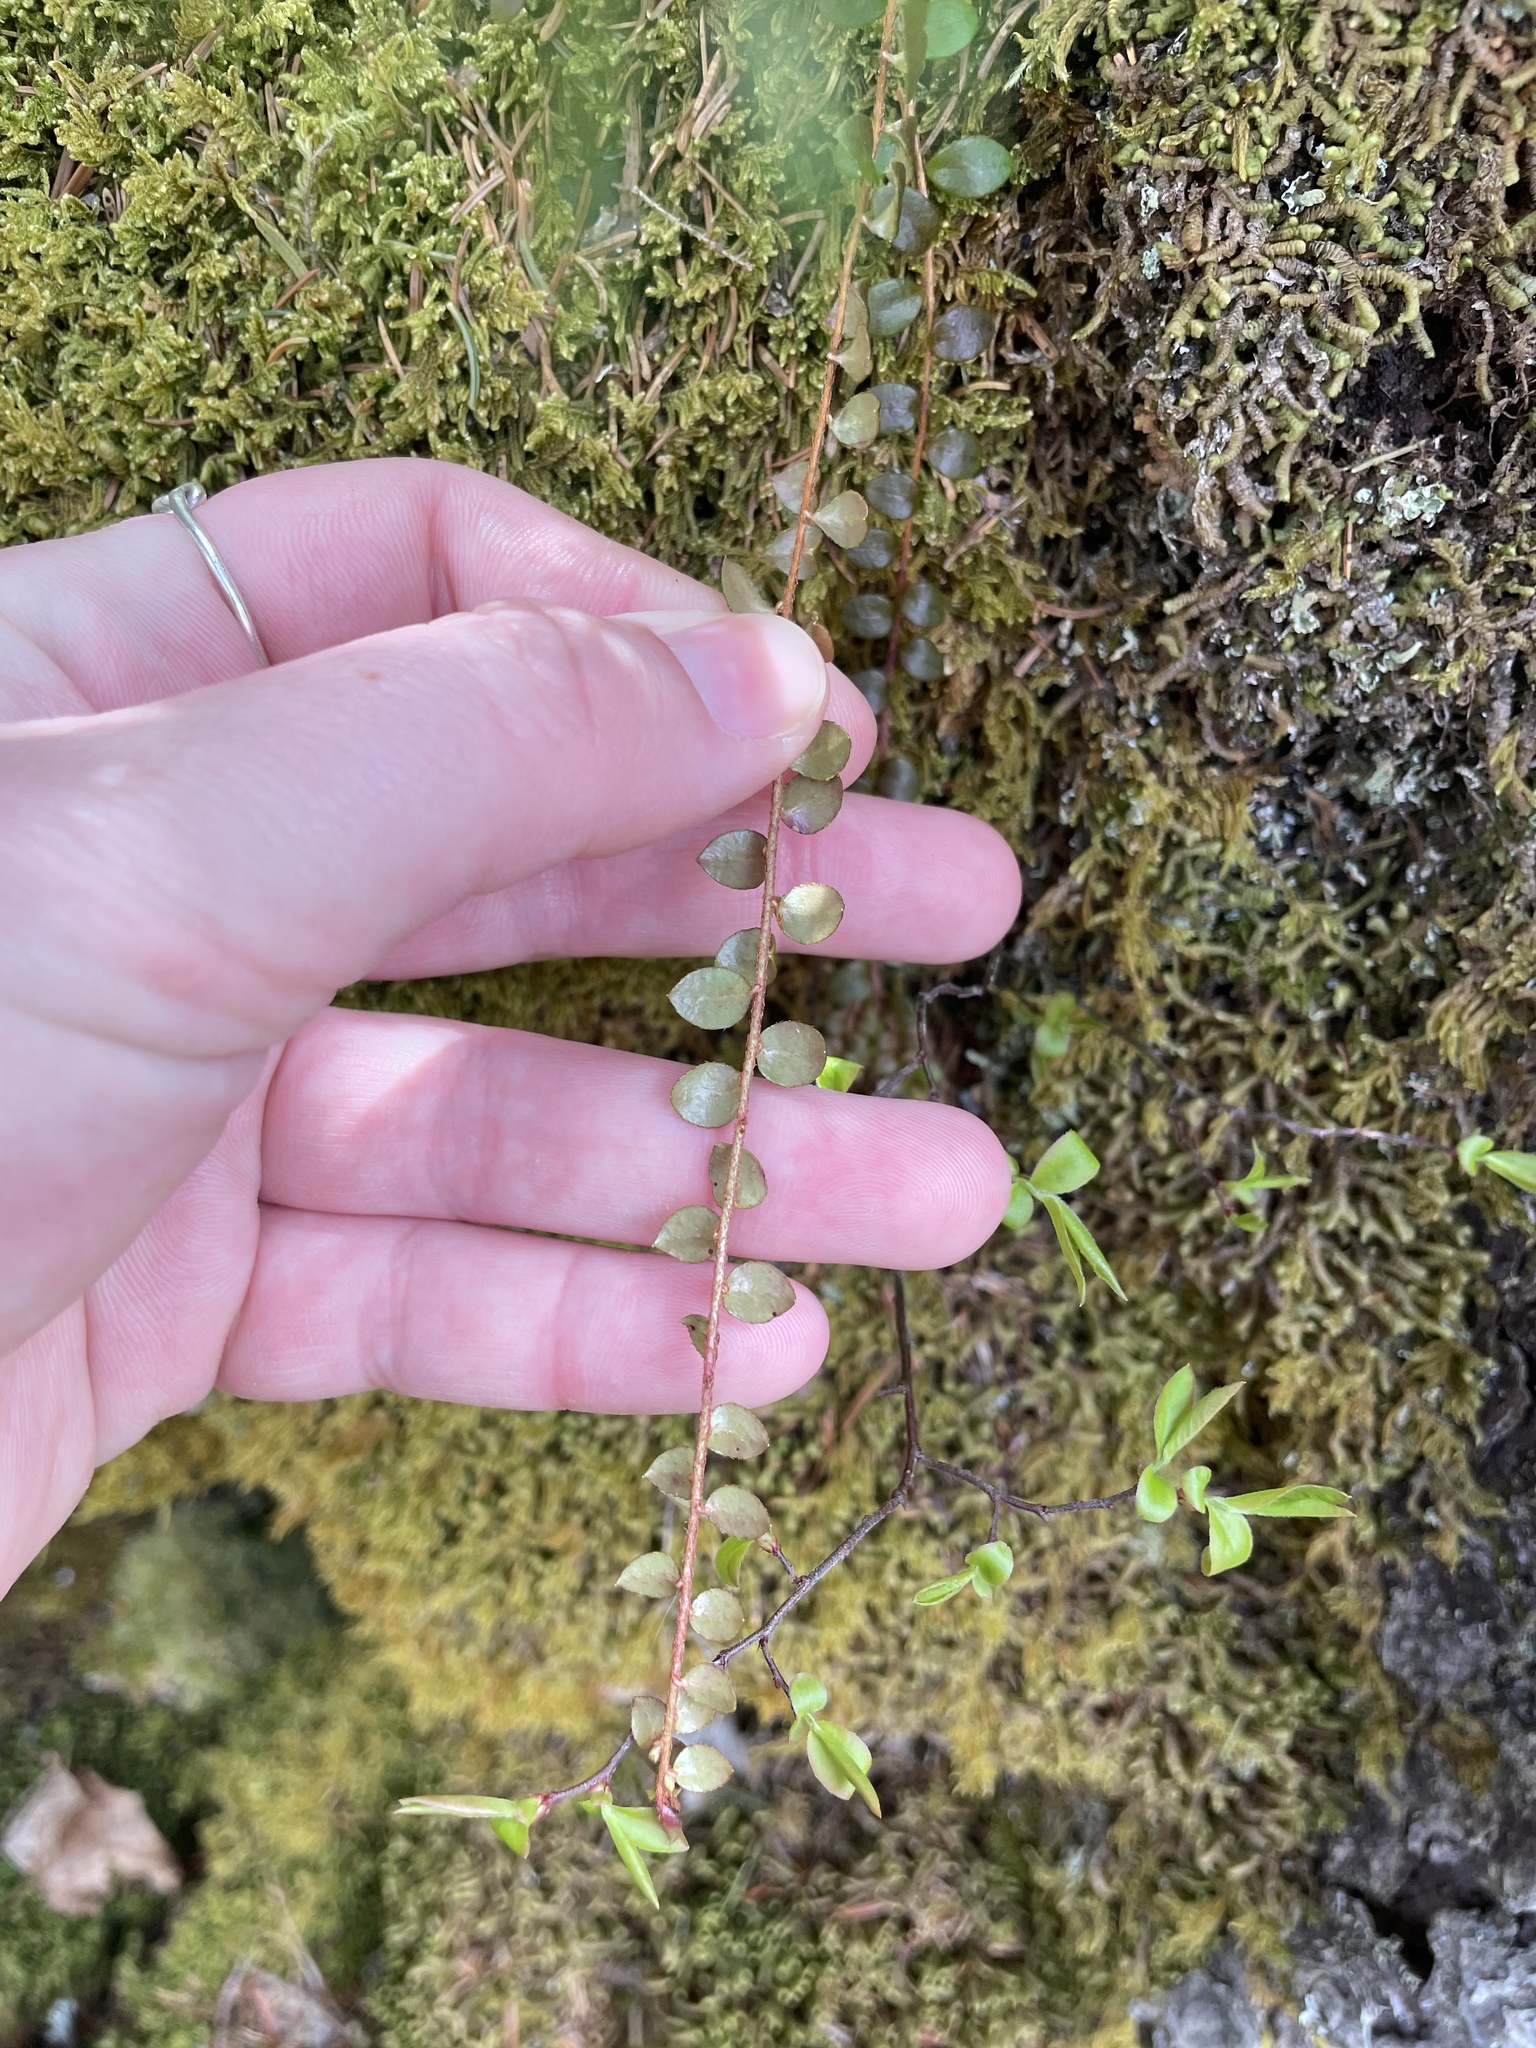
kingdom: Plantae
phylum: Tracheophyta
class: Magnoliopsida
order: Ericales
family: Ericaceae
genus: Gaultheria
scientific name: Gaultheria hispidula
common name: Cancer wintergreen
